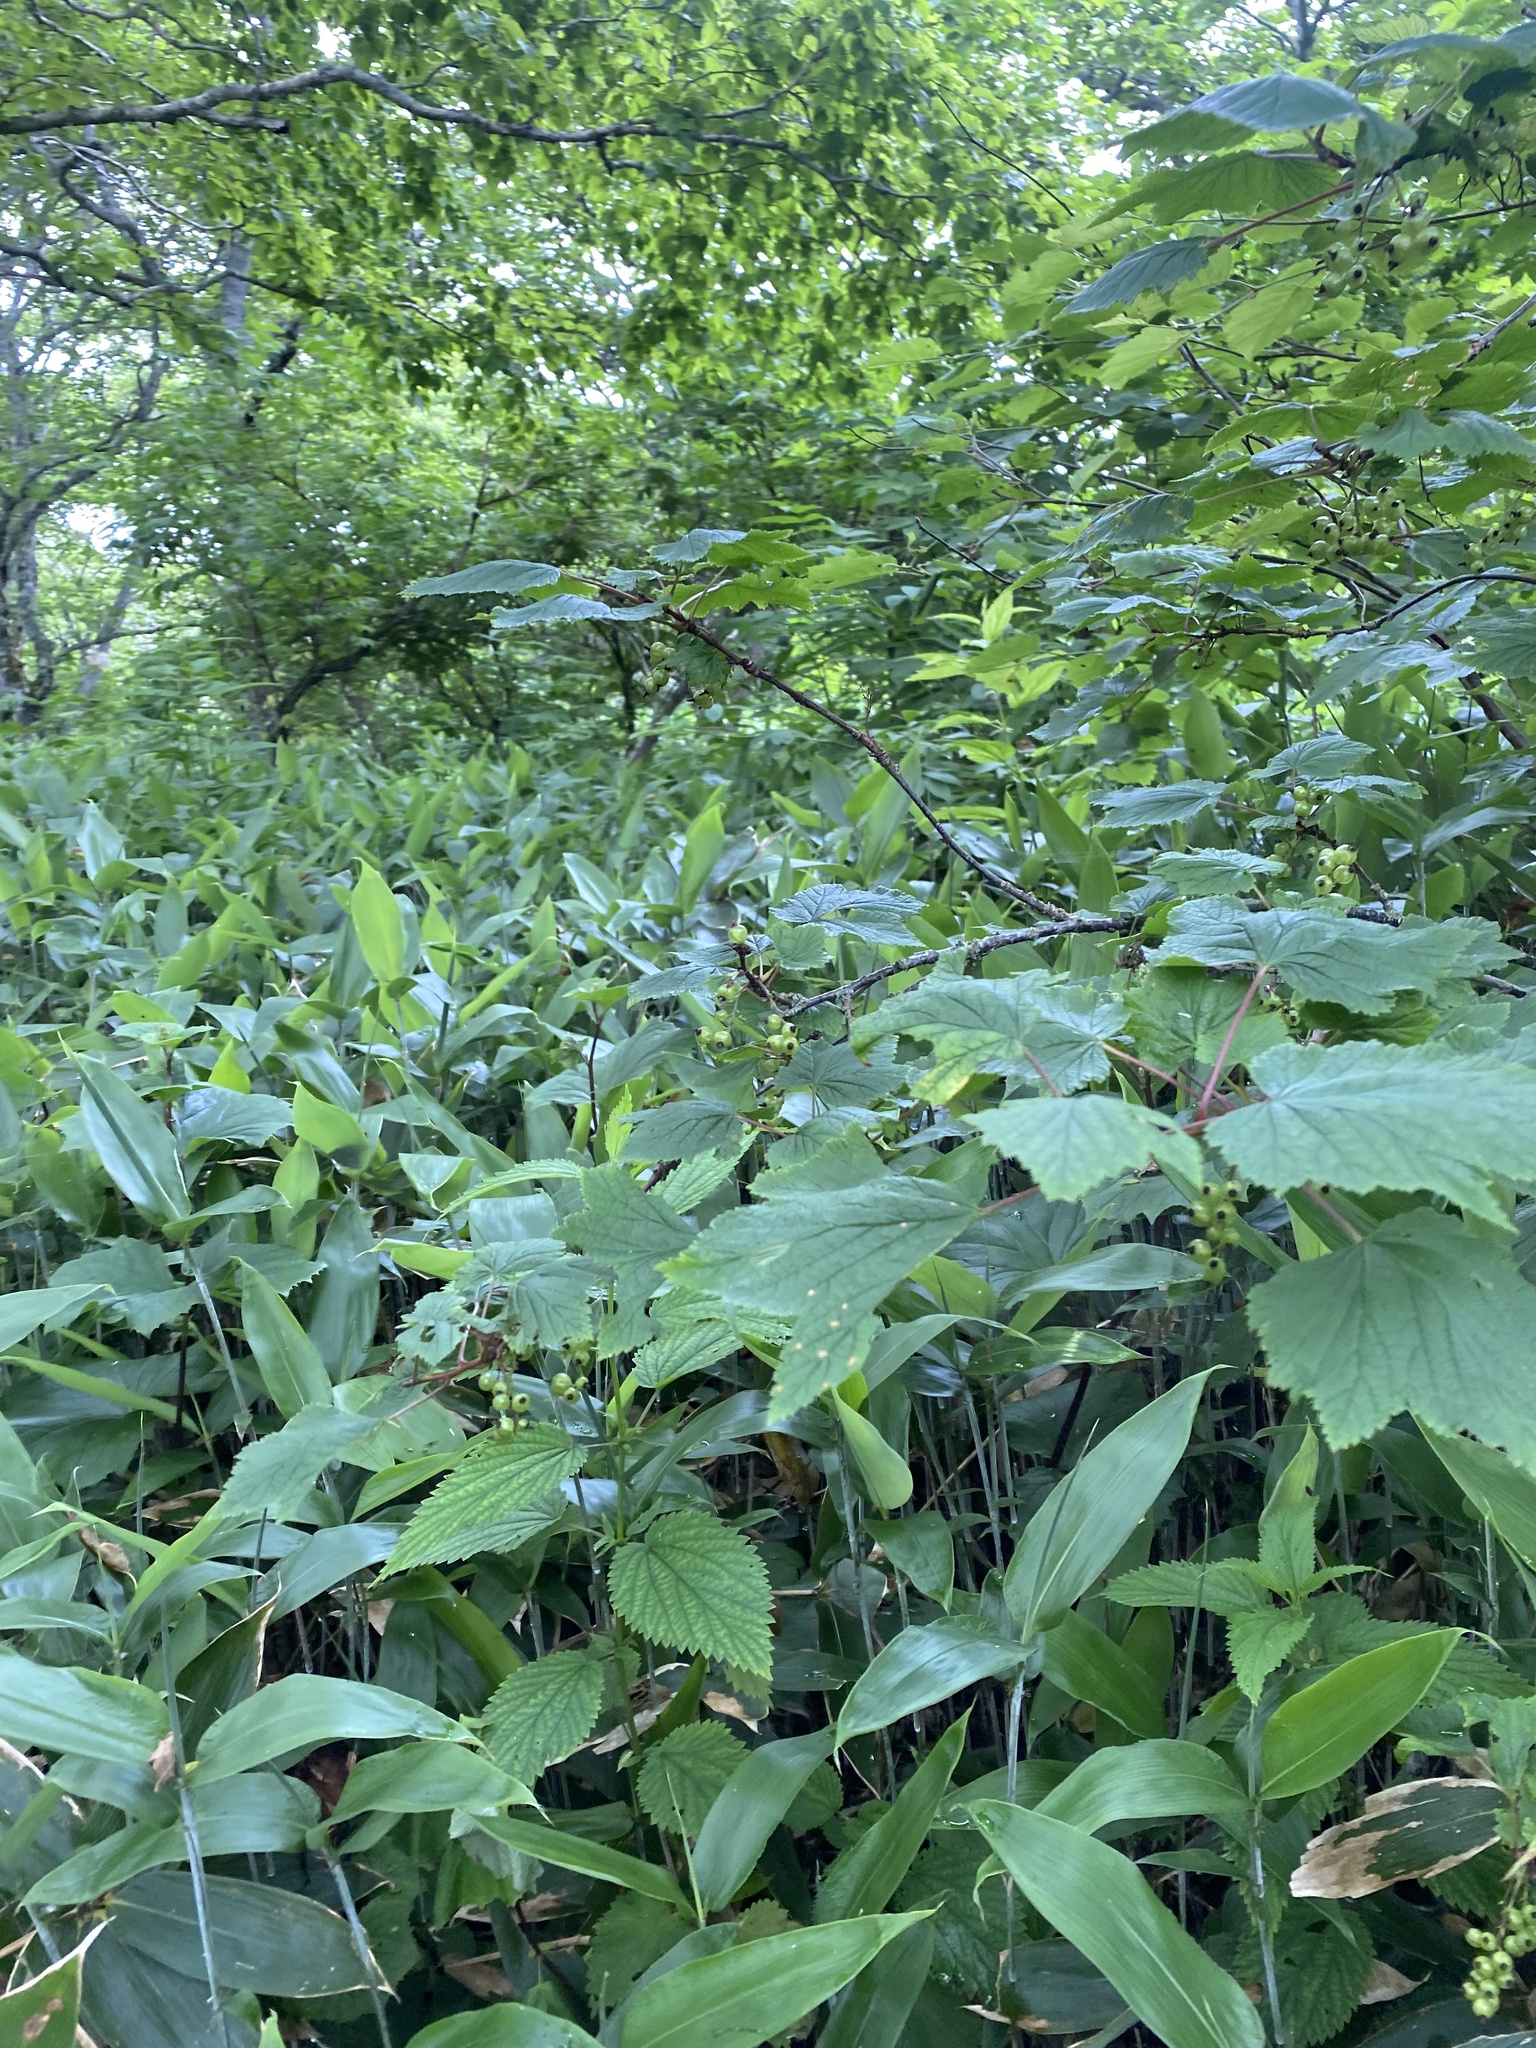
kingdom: Plantae
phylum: Tracheophyta
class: Magnoliopsida
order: Saxifragales
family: Grossulariaceae
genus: Ribes
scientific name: Ribes latifolium
